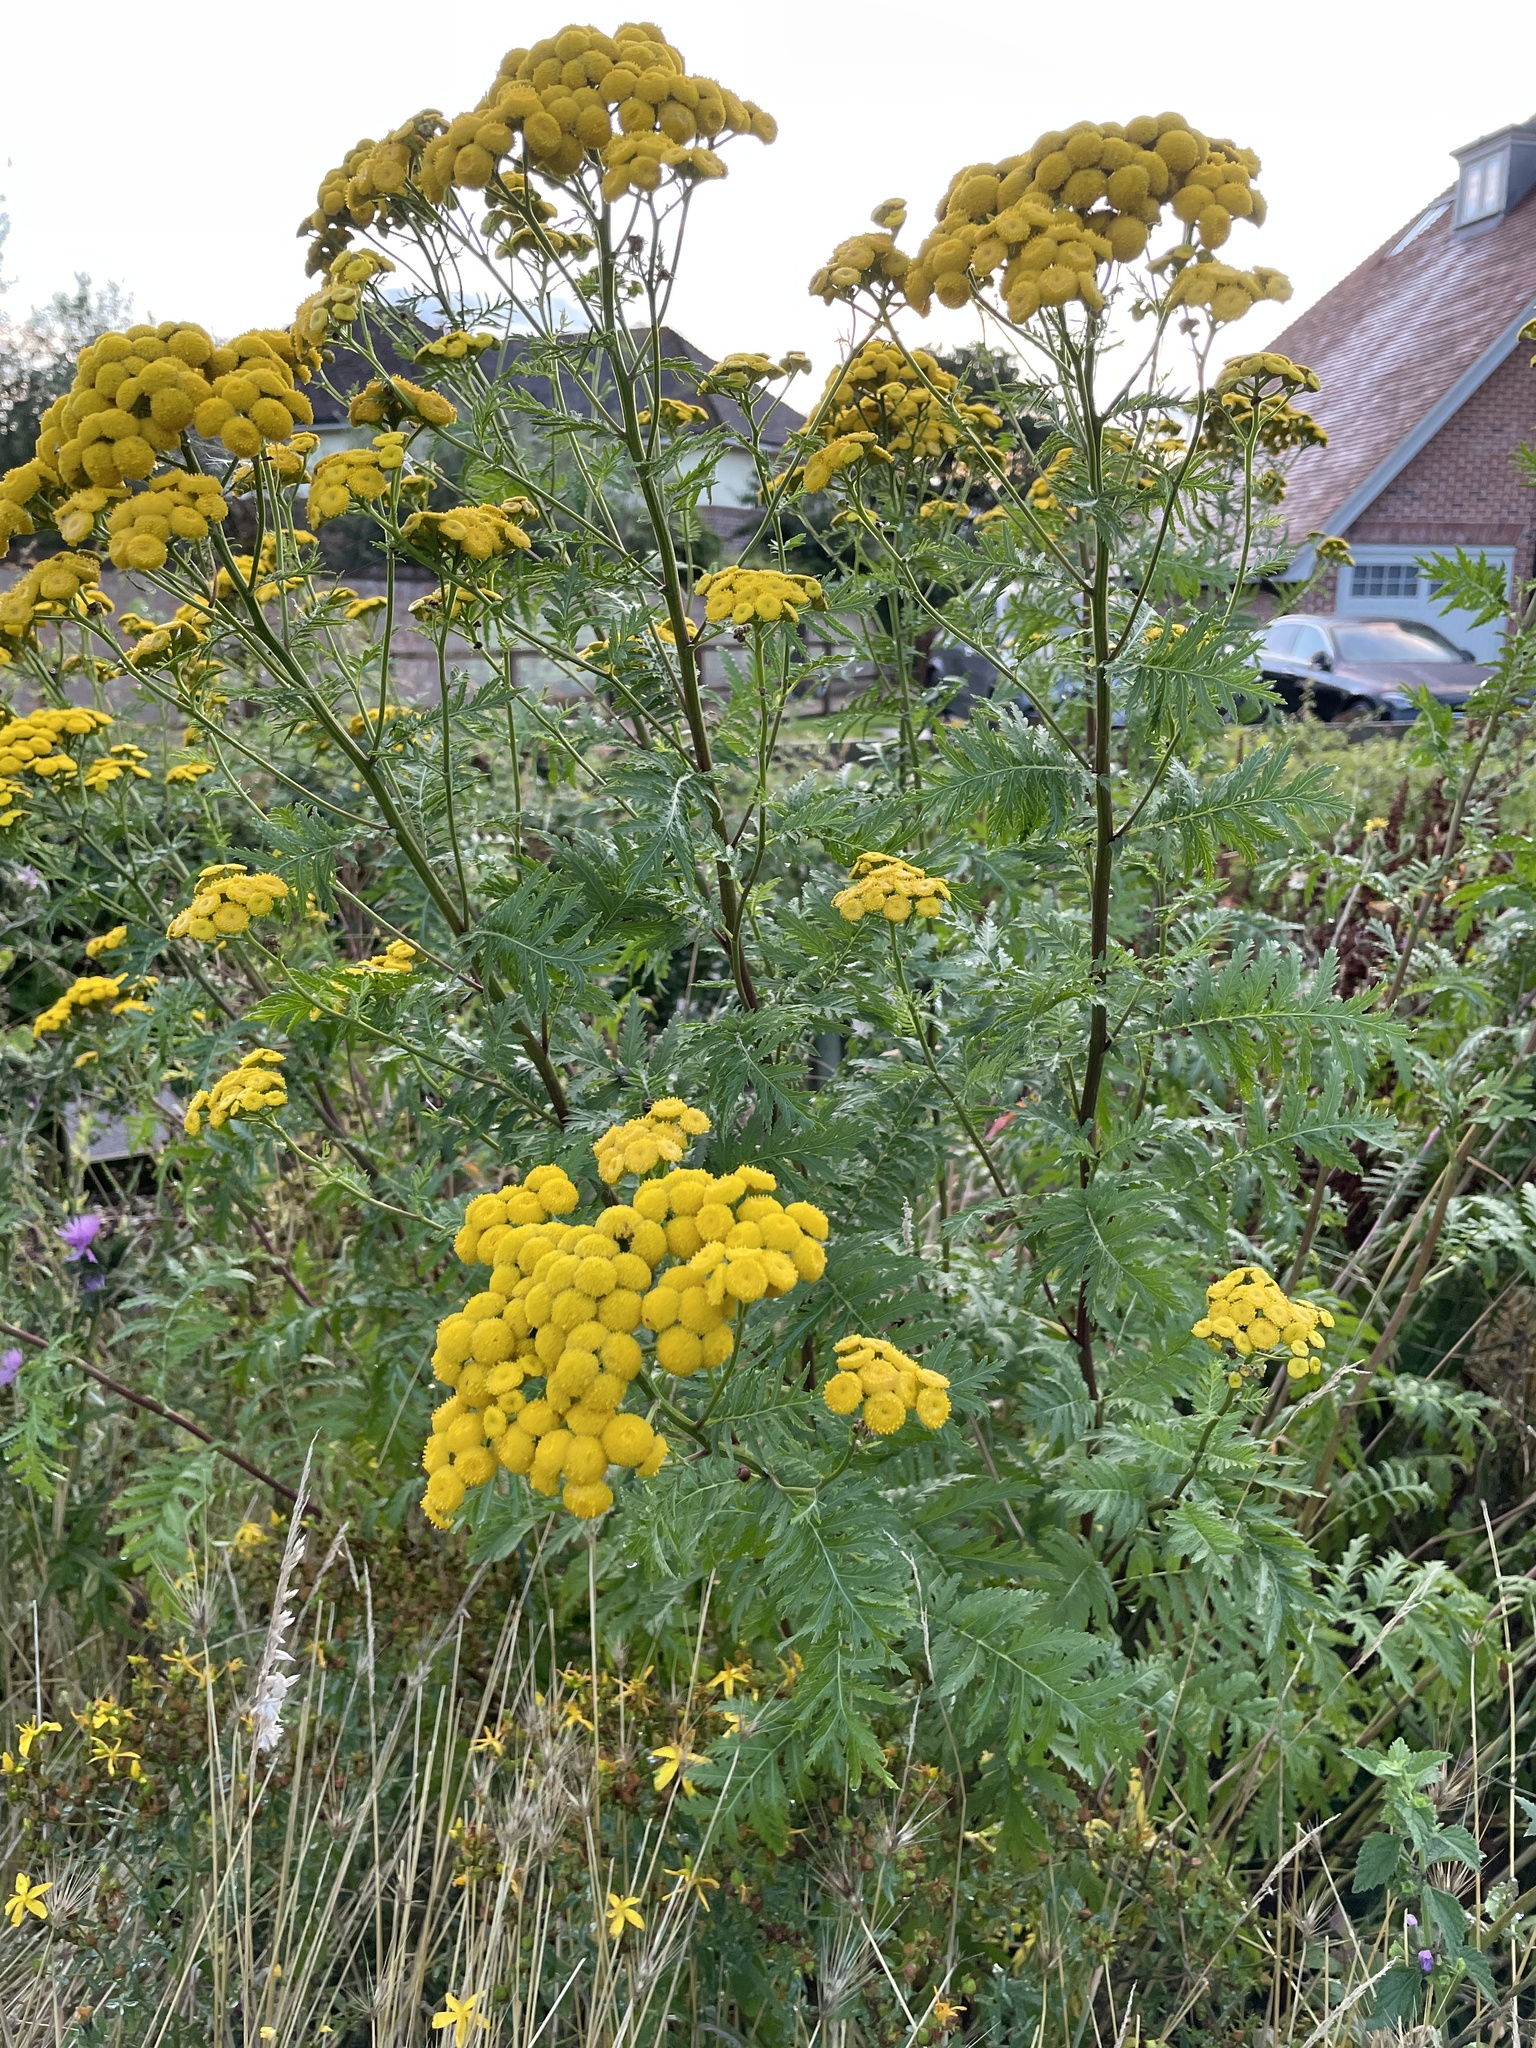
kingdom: Plantae
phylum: Tracheophyta
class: Magnoliopsida
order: Asterales
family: Asteraceae
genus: Tanacetum
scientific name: Tanacetum vulgare
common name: Common tansy
